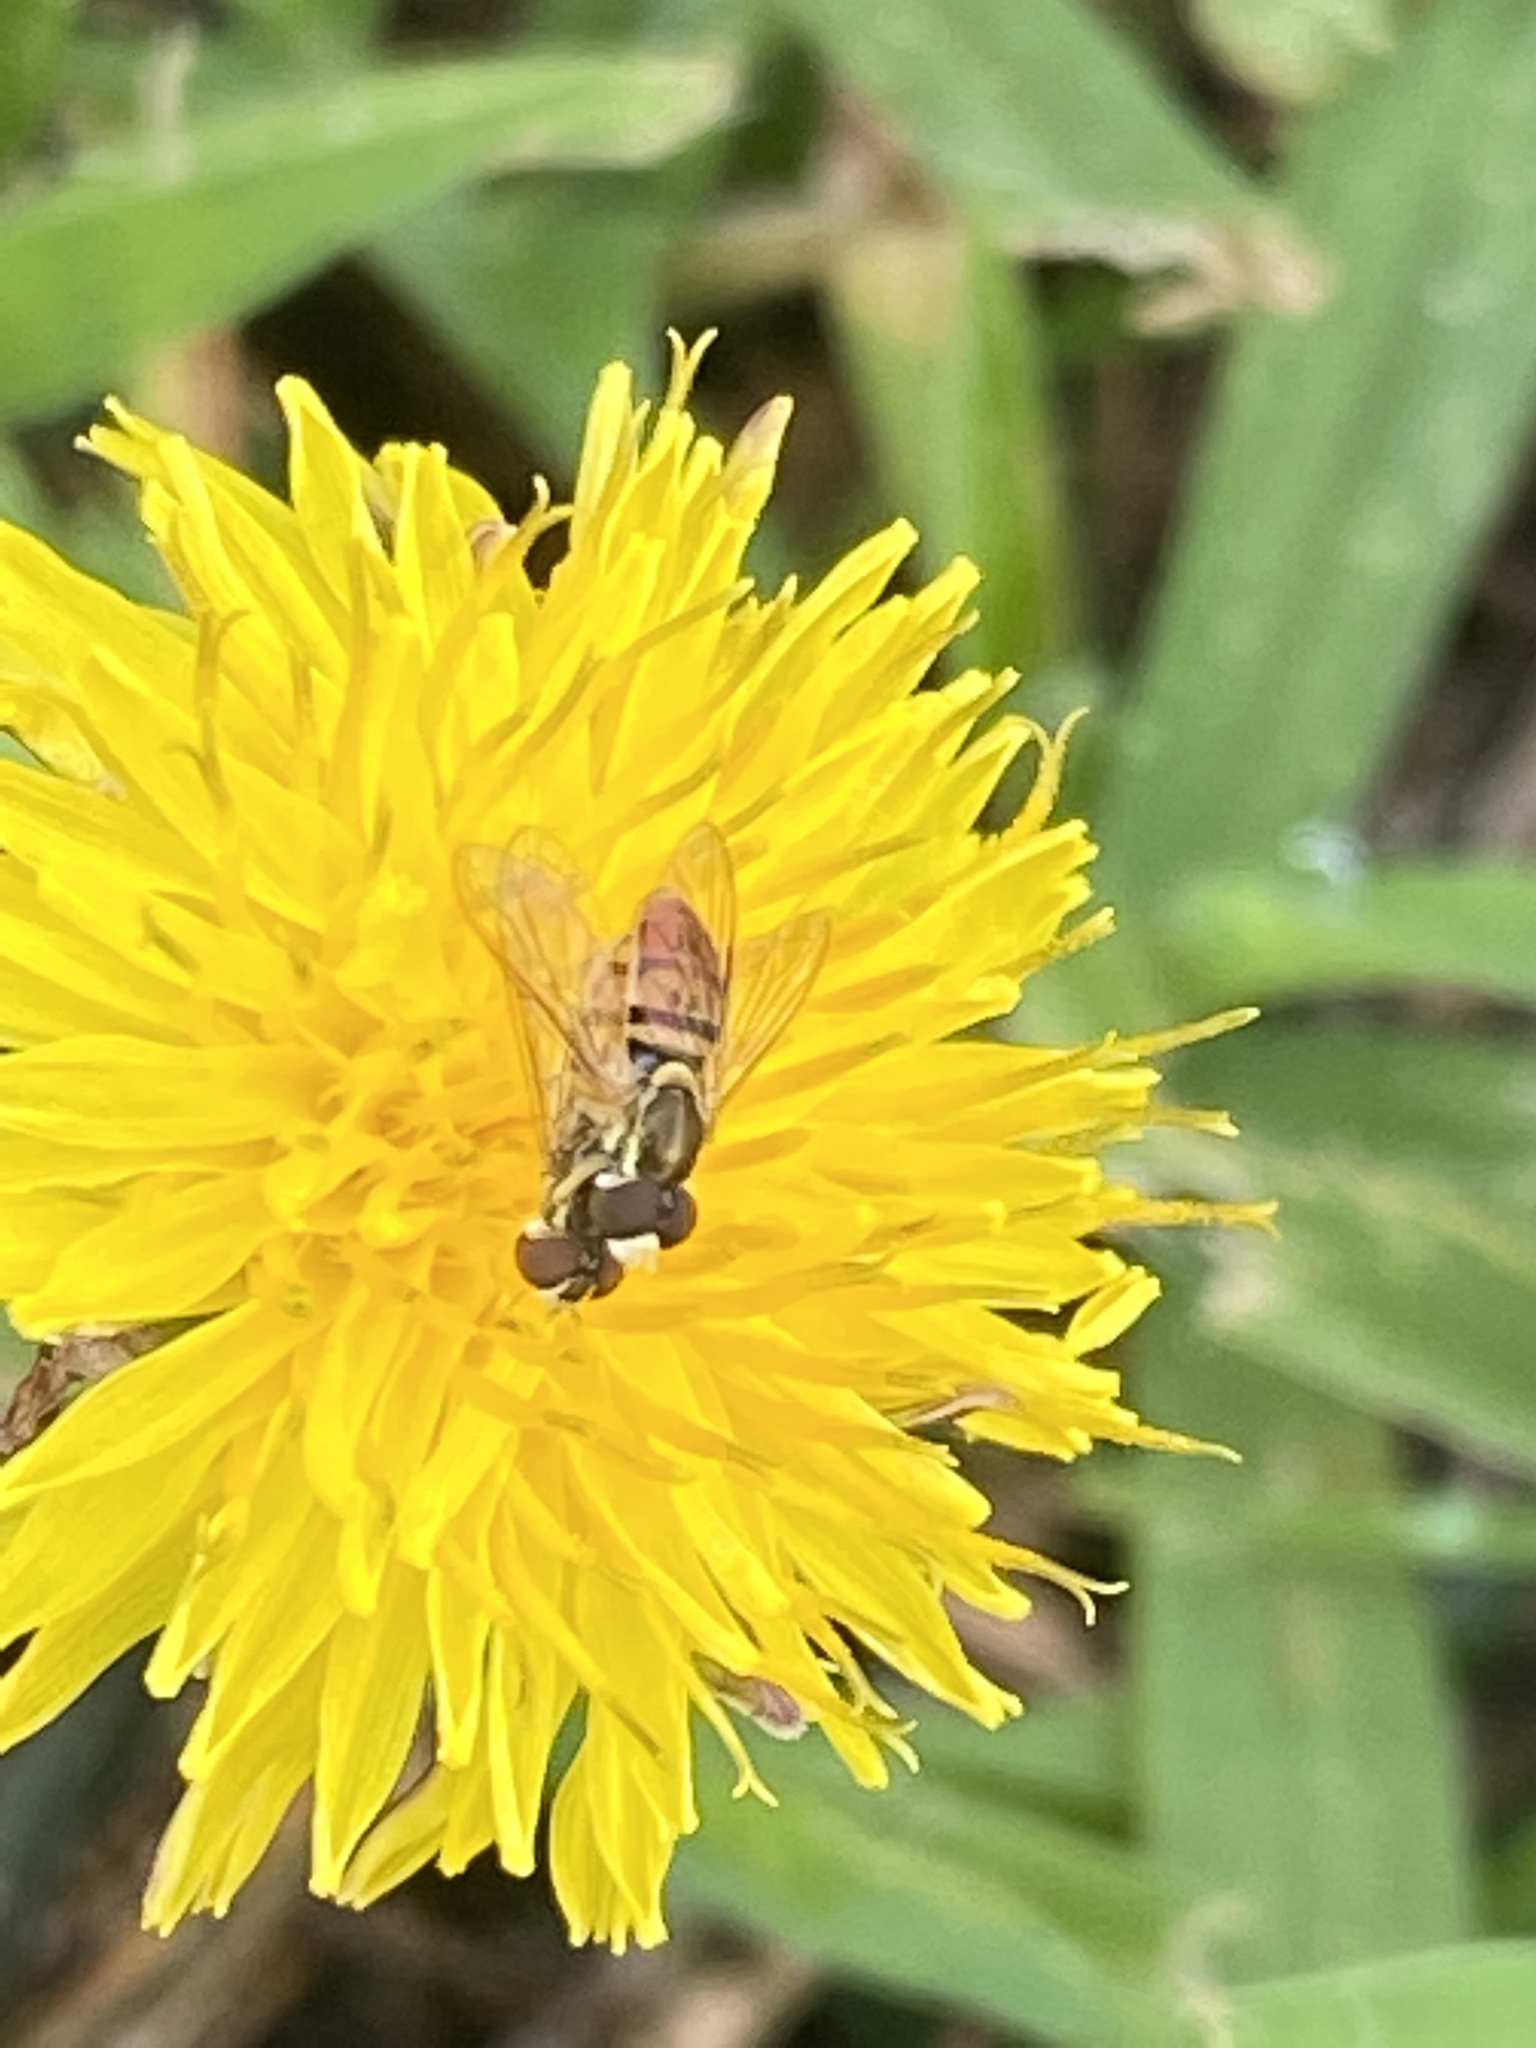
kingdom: Animalia
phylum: Arthropoda
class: Insecta
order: Diptera
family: Syrphidae
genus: Toxomerus
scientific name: Toxomerus marginatus
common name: Syrphid fly
